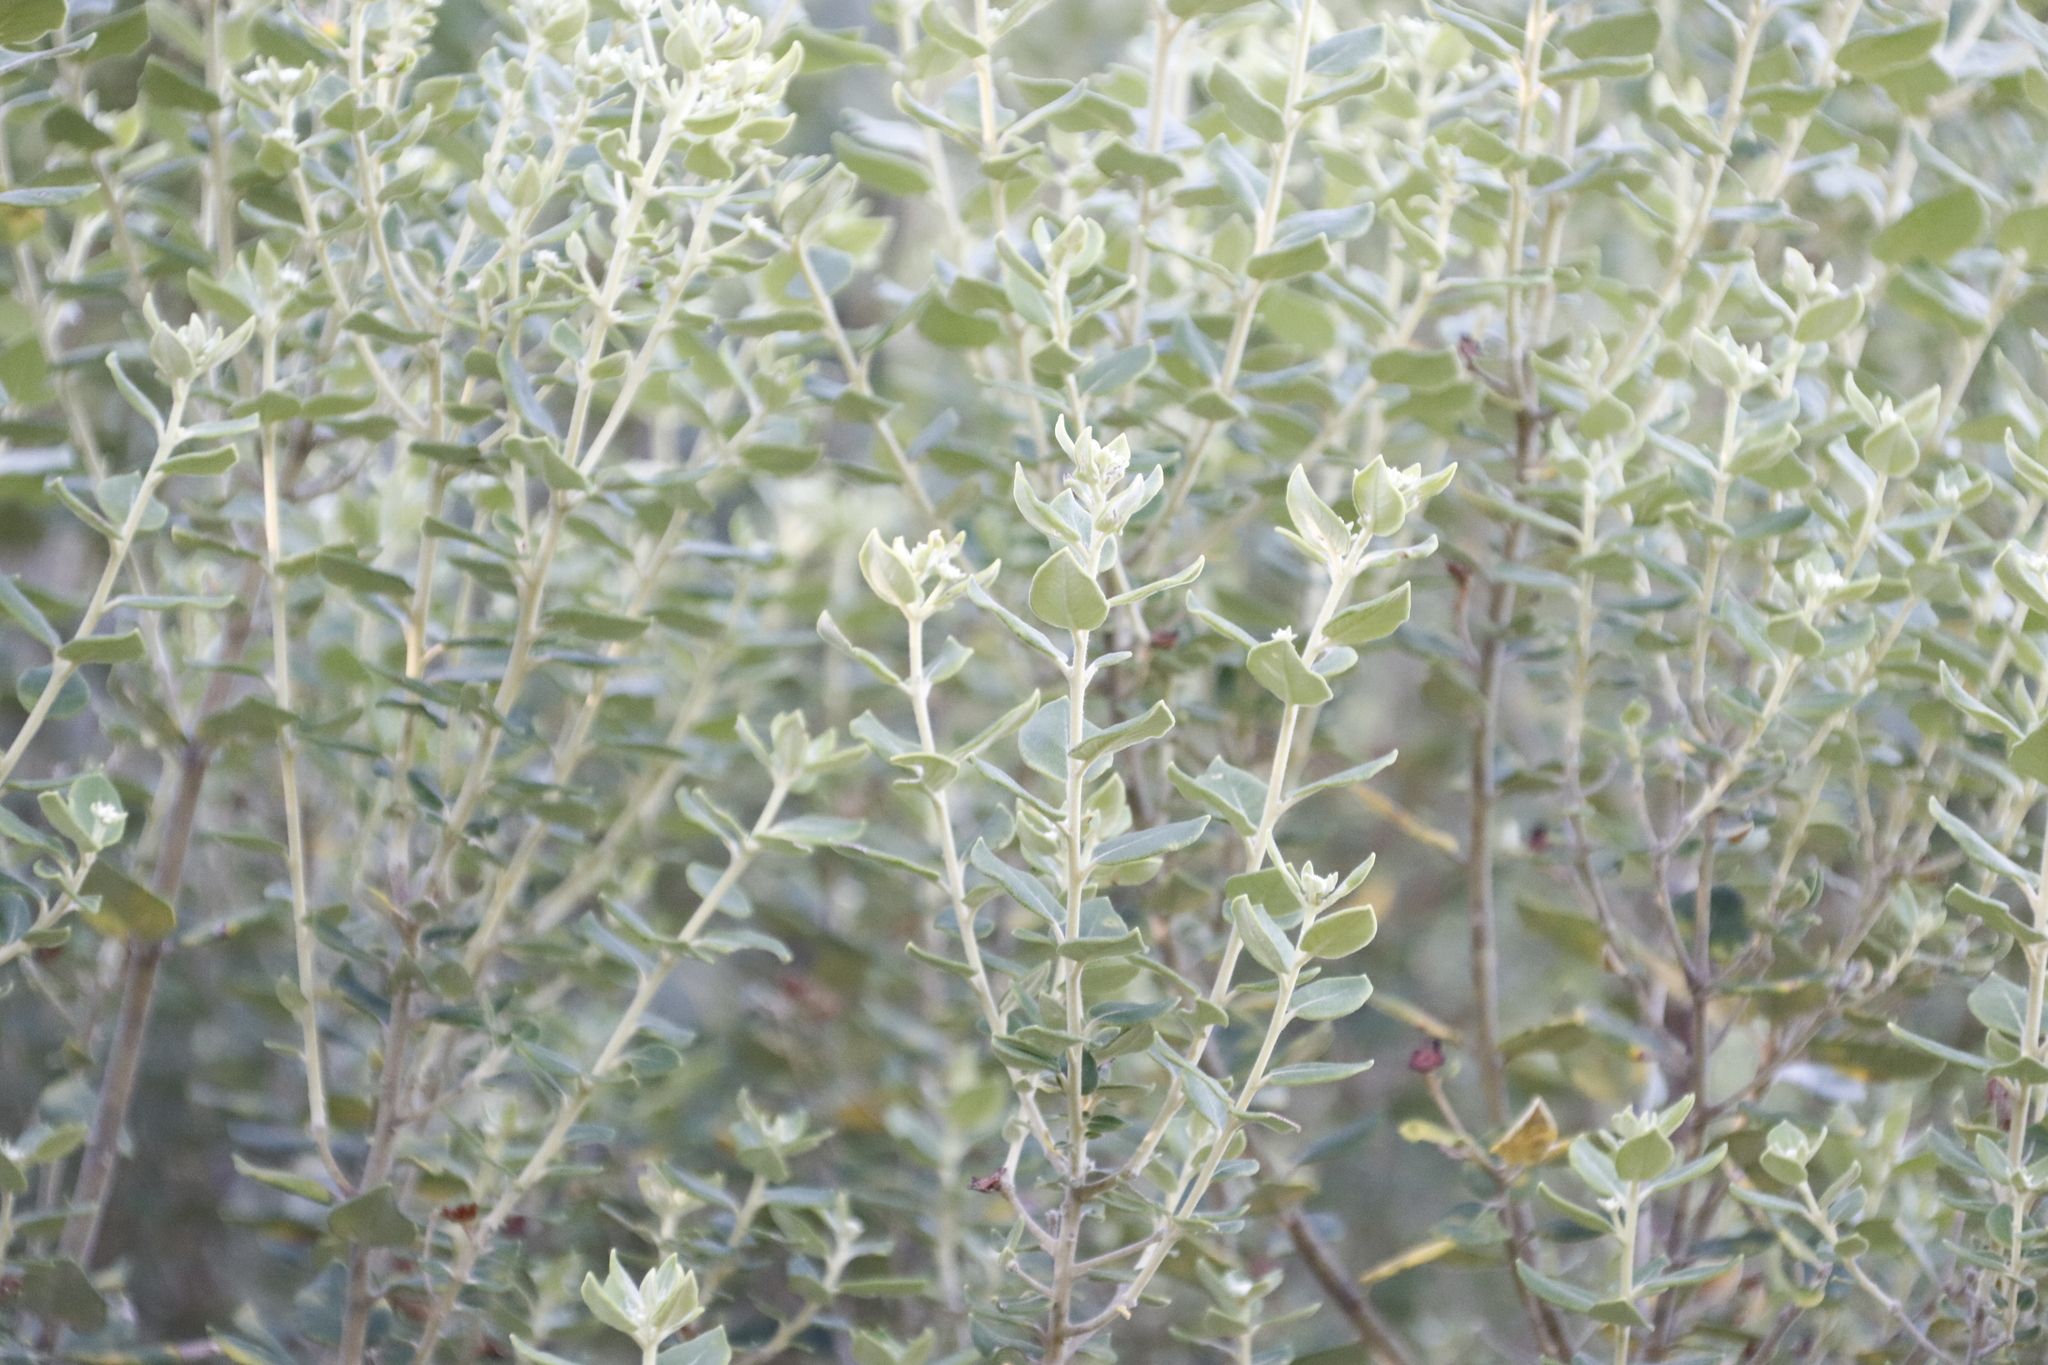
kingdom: Plantae
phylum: Tracheophyta
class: Magnoliopsida
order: Rosales
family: Rhamnaceae
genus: Phylica
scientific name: Phylica buxifolia
